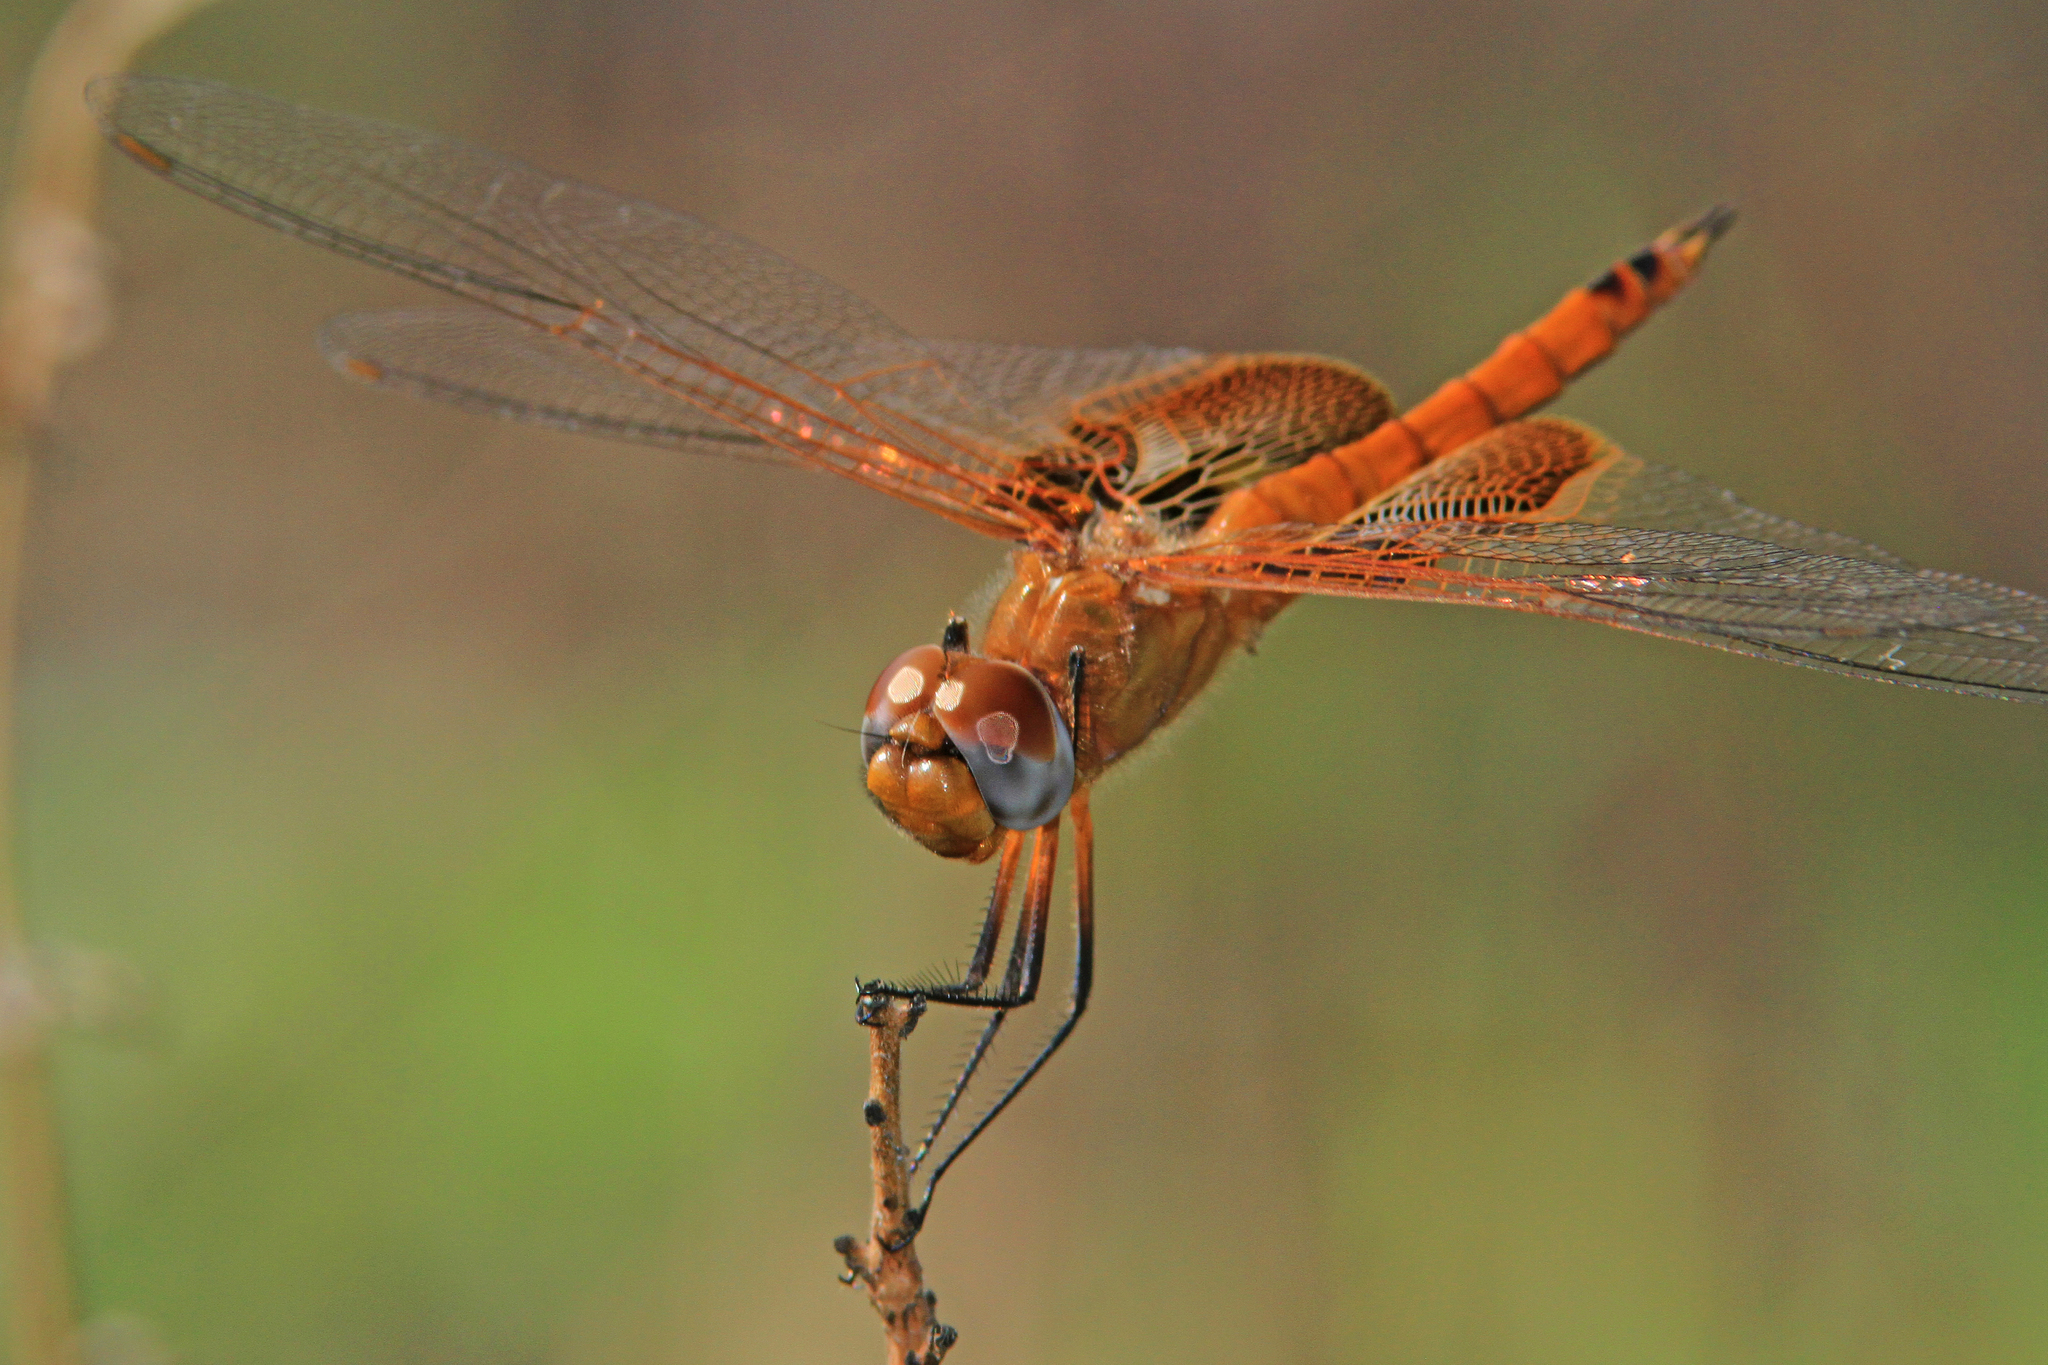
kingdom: Animalia
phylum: Arthropoda
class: Insecta
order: Odonata
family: Libellulidae
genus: Tramea
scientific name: Tramea onusta
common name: Red saddlebags
